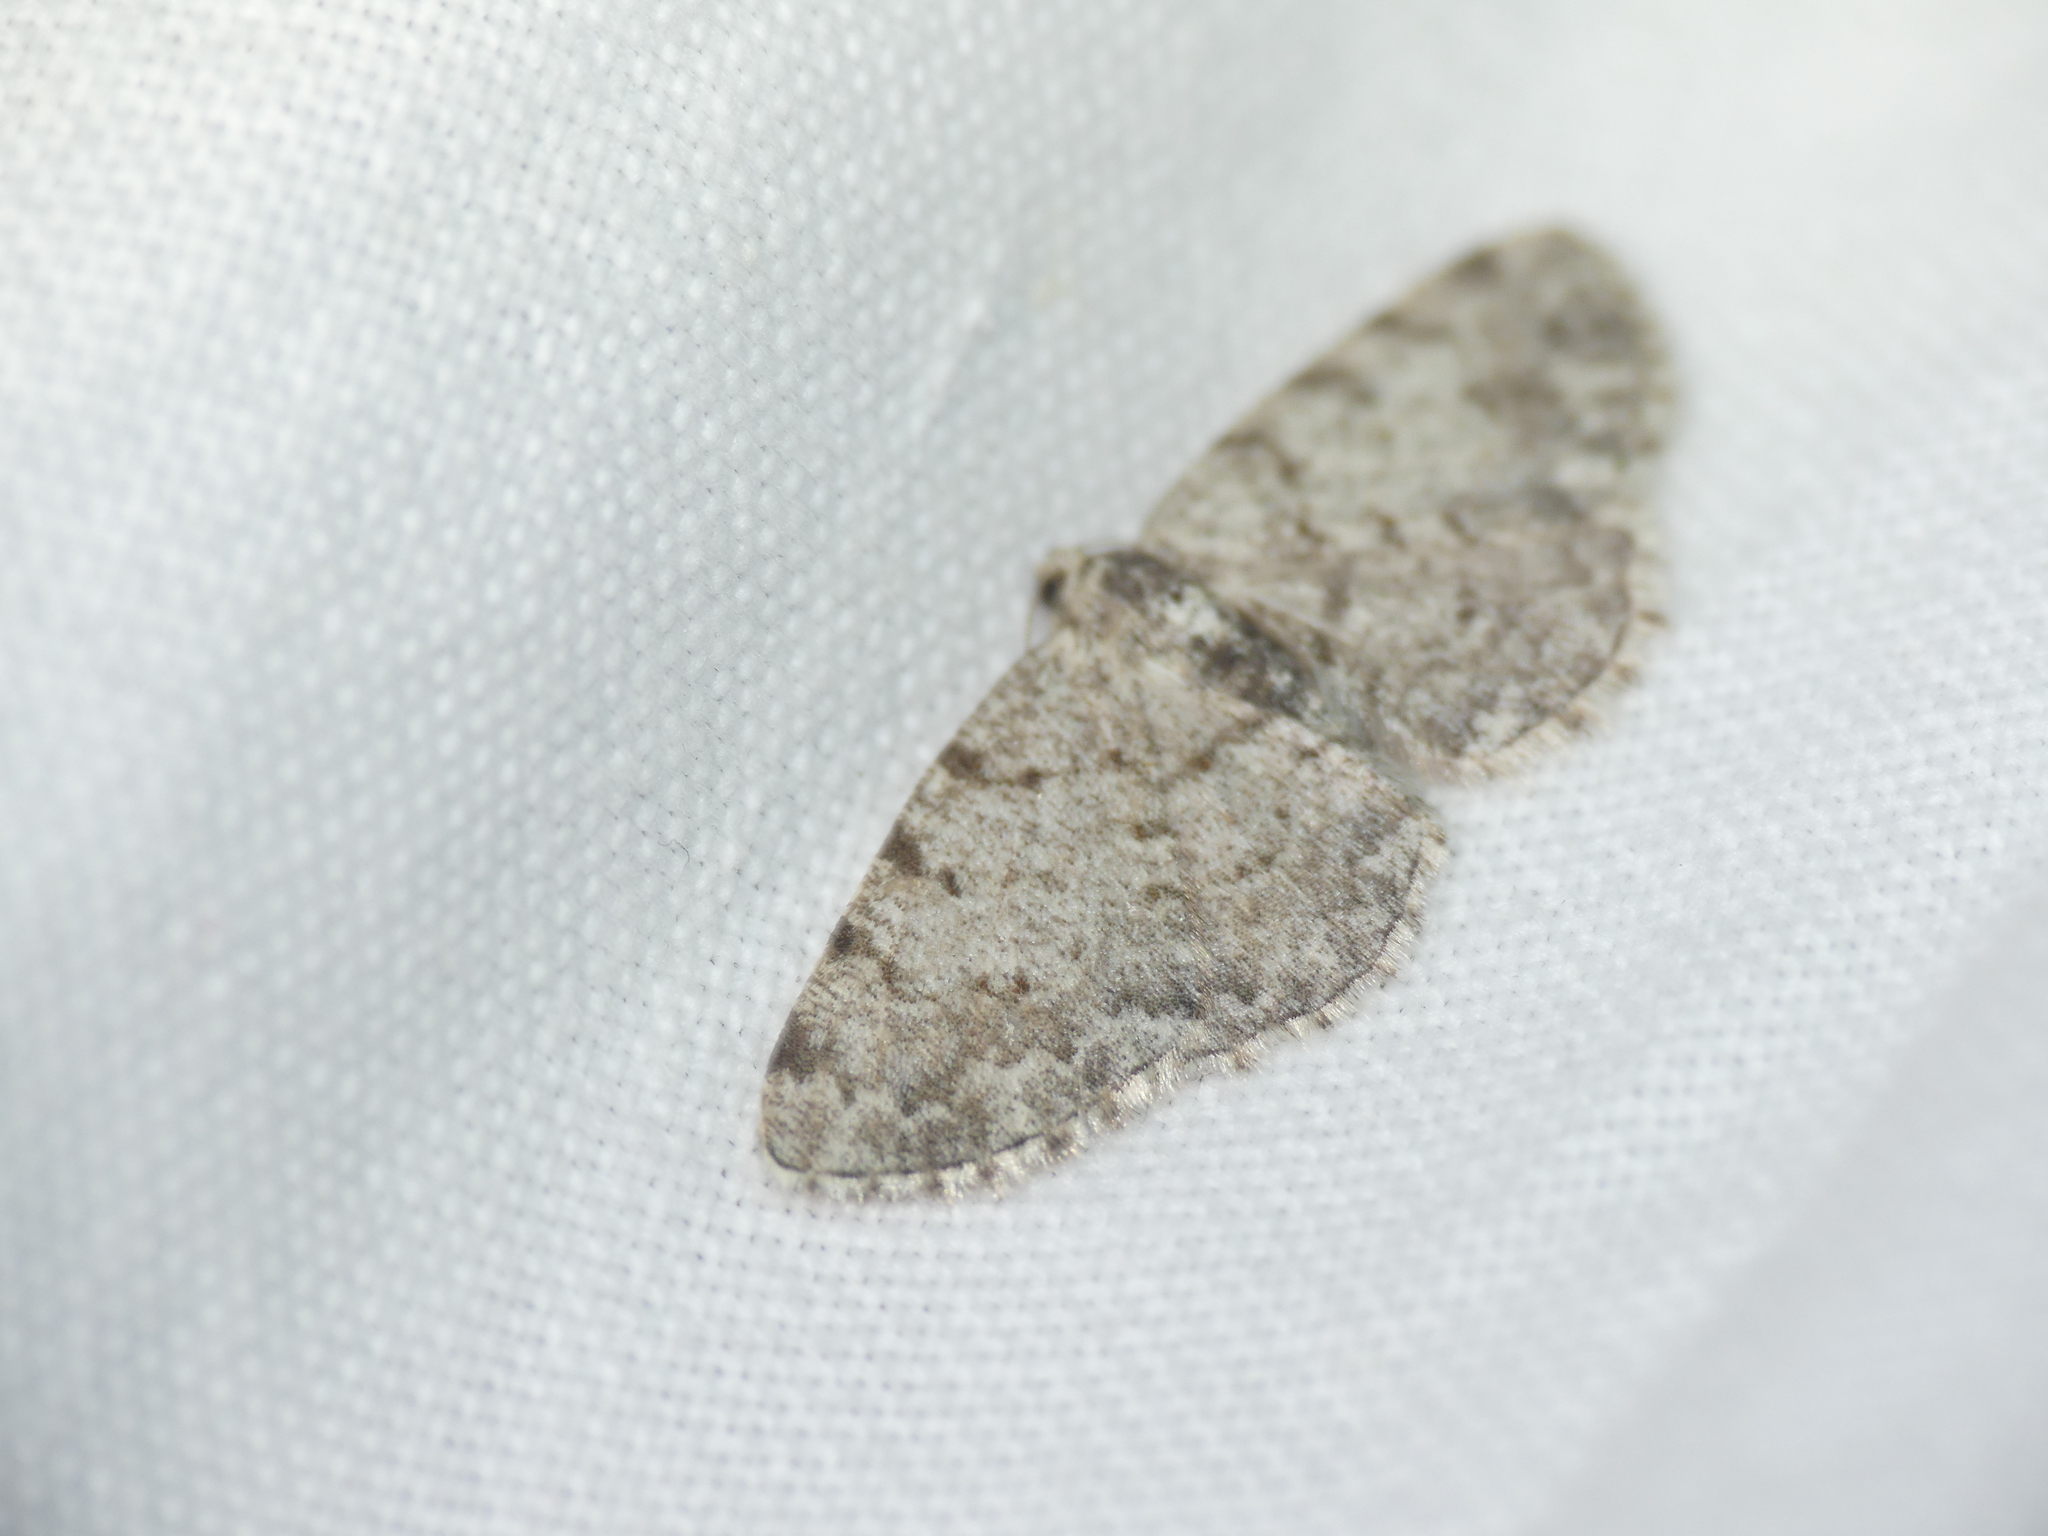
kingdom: Animalia
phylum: Arthropoda
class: Insecta
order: Lepidoptera
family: Geometridae
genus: Aethalura
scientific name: Aethalura punctulata
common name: Grey birch
